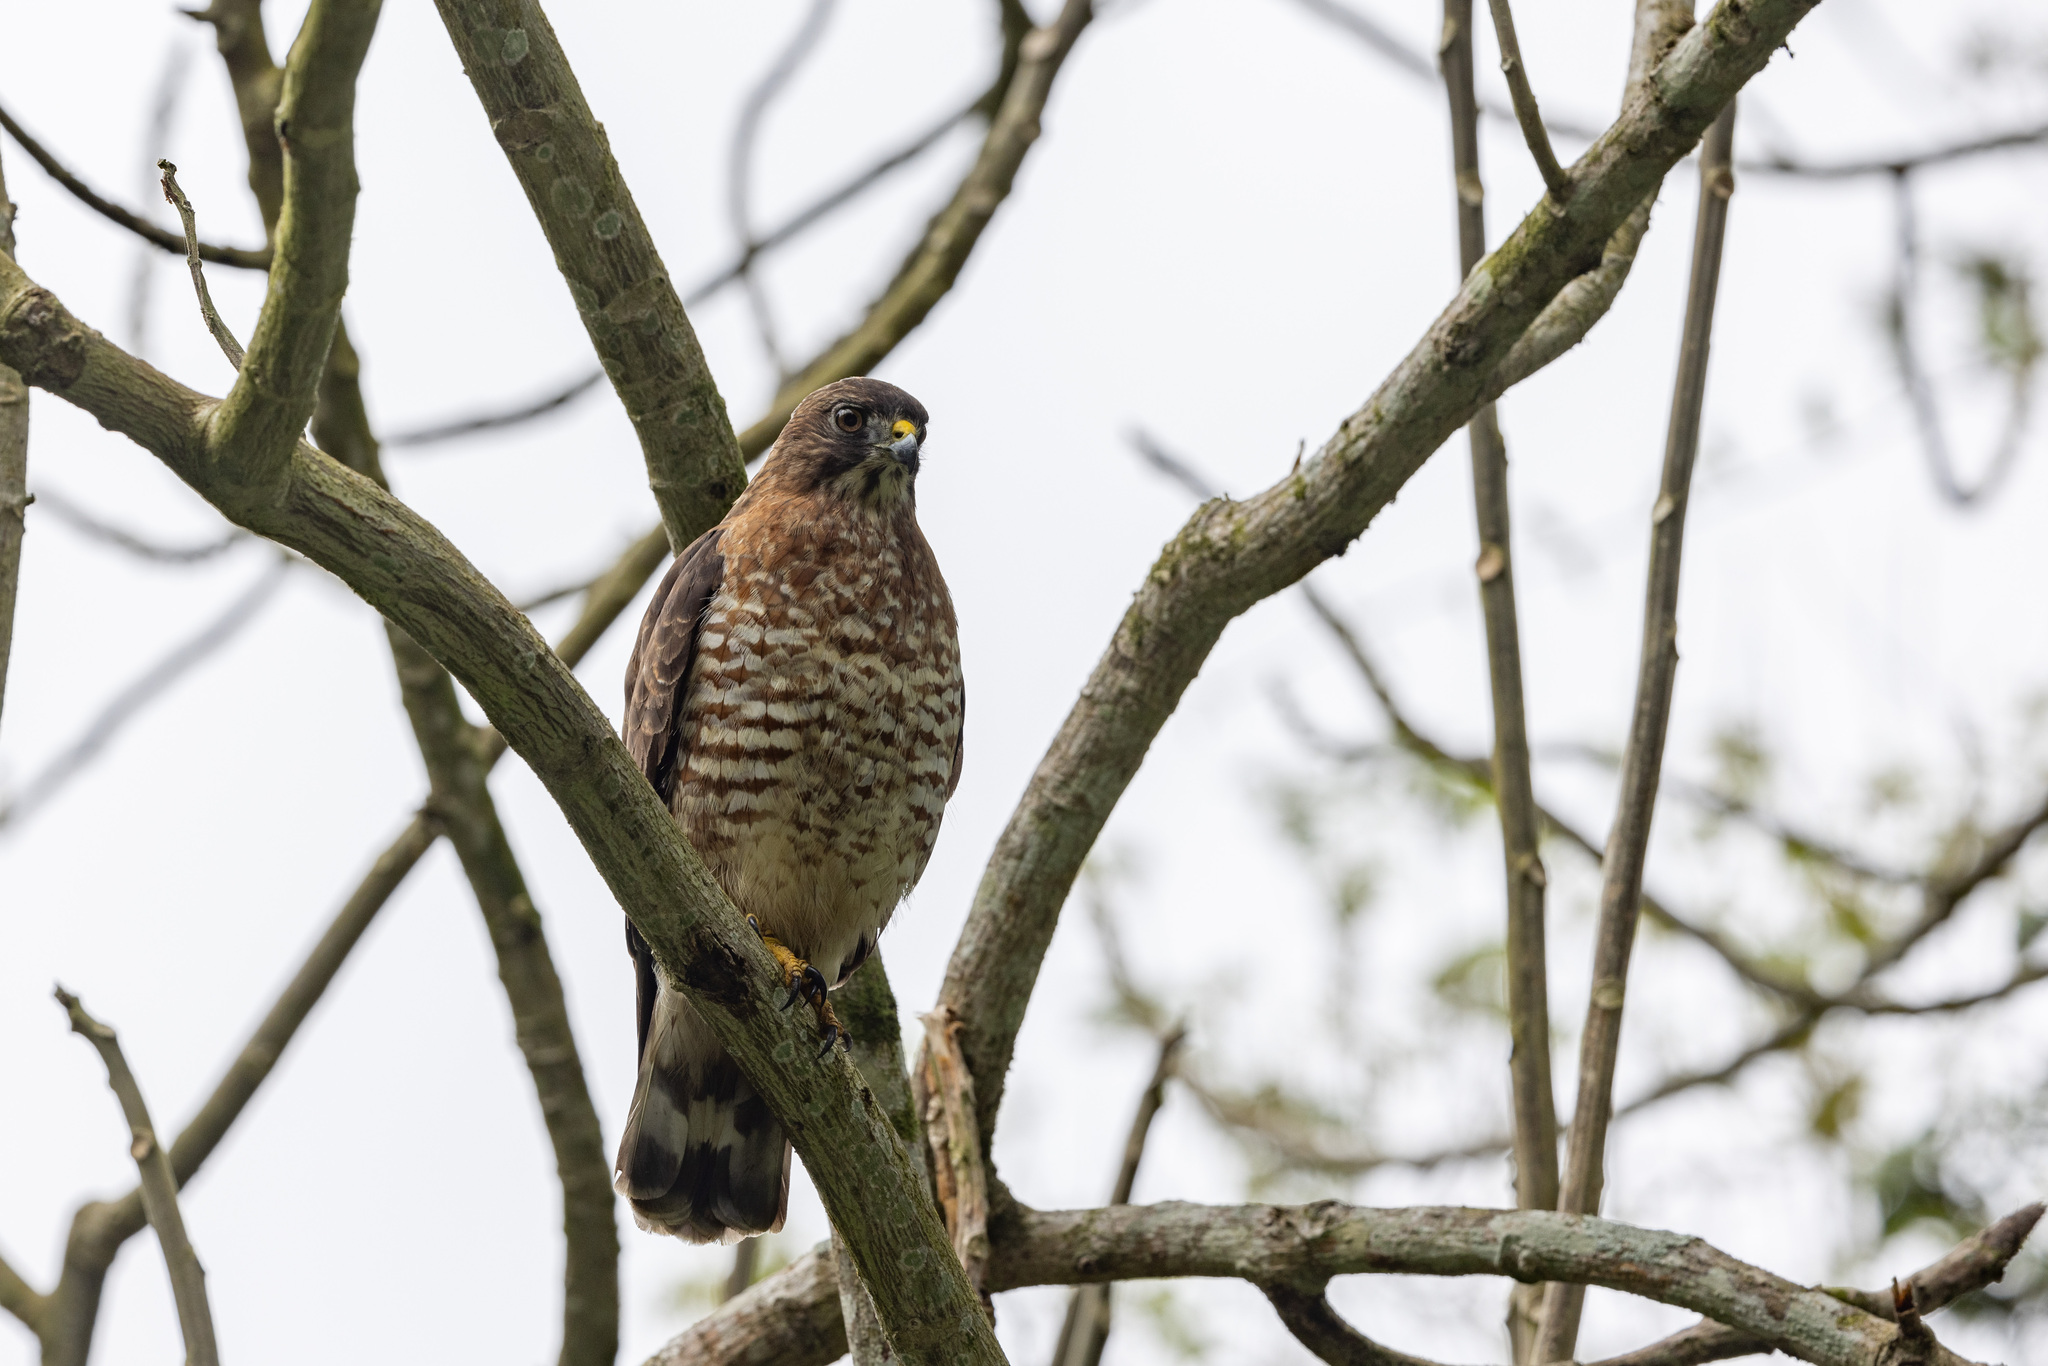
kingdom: Animalia
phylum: Chordata
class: Aves
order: Accipitriformes
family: Accipitridae
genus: Buteo
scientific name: Buteo platypterus
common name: Broad-winged hawk
